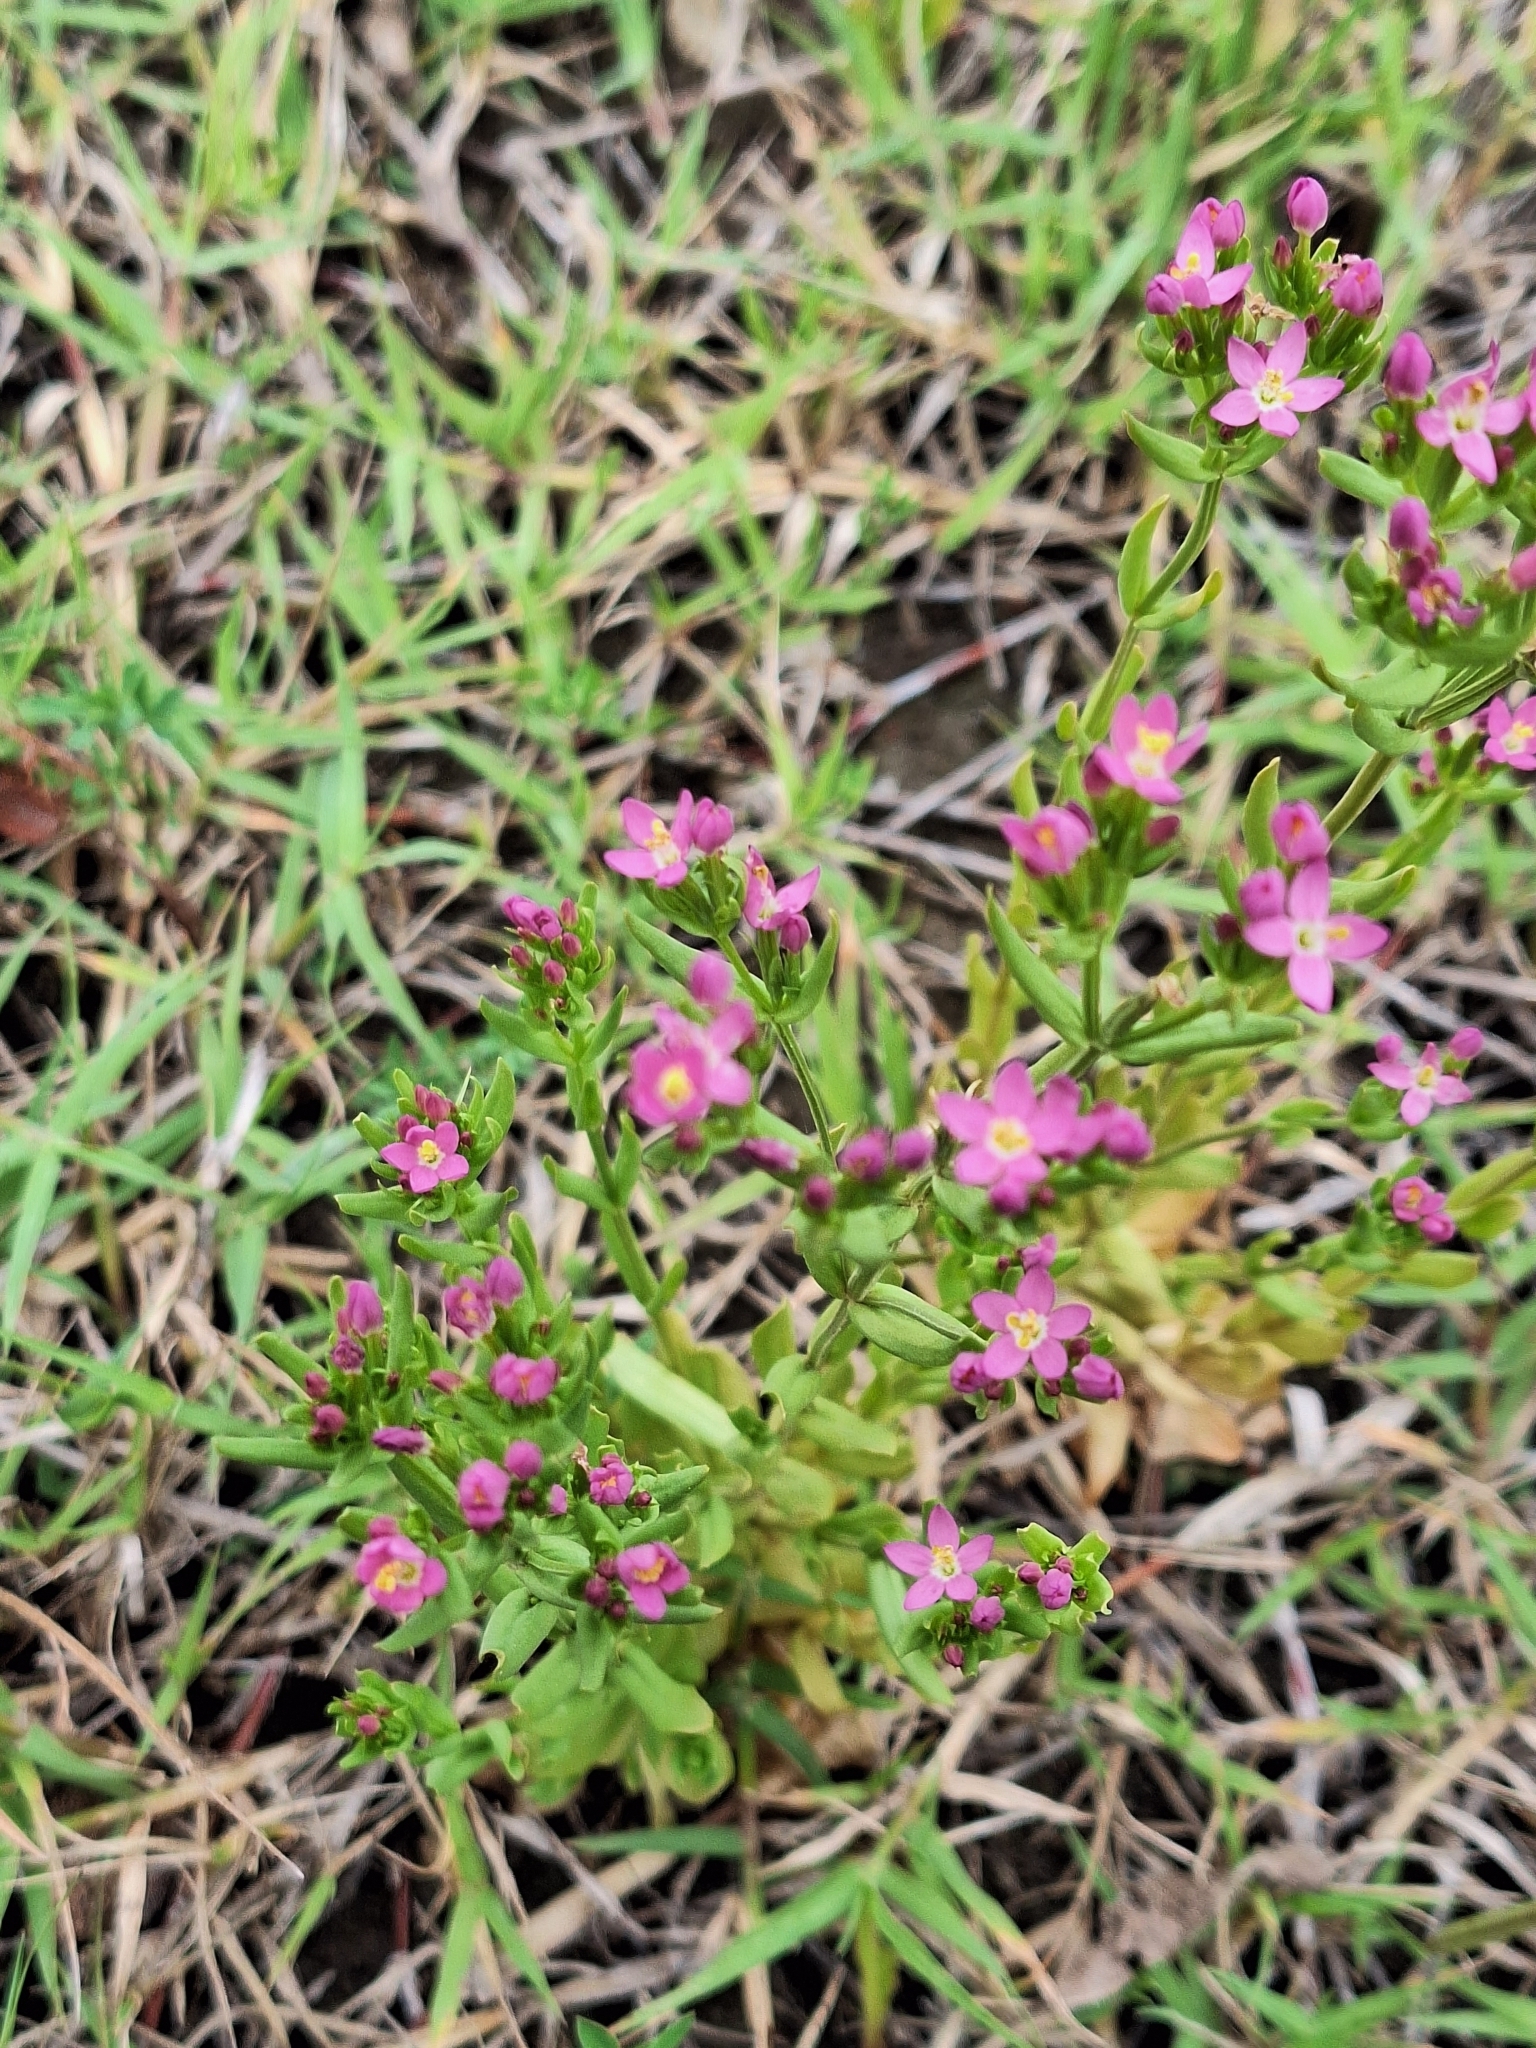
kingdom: Plantae
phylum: Tracheophyta
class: Magnoliopsida
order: Gentianales
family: Gentianaceae
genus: Centaurium
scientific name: Centaurium pulchellum
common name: Lesser centaury
